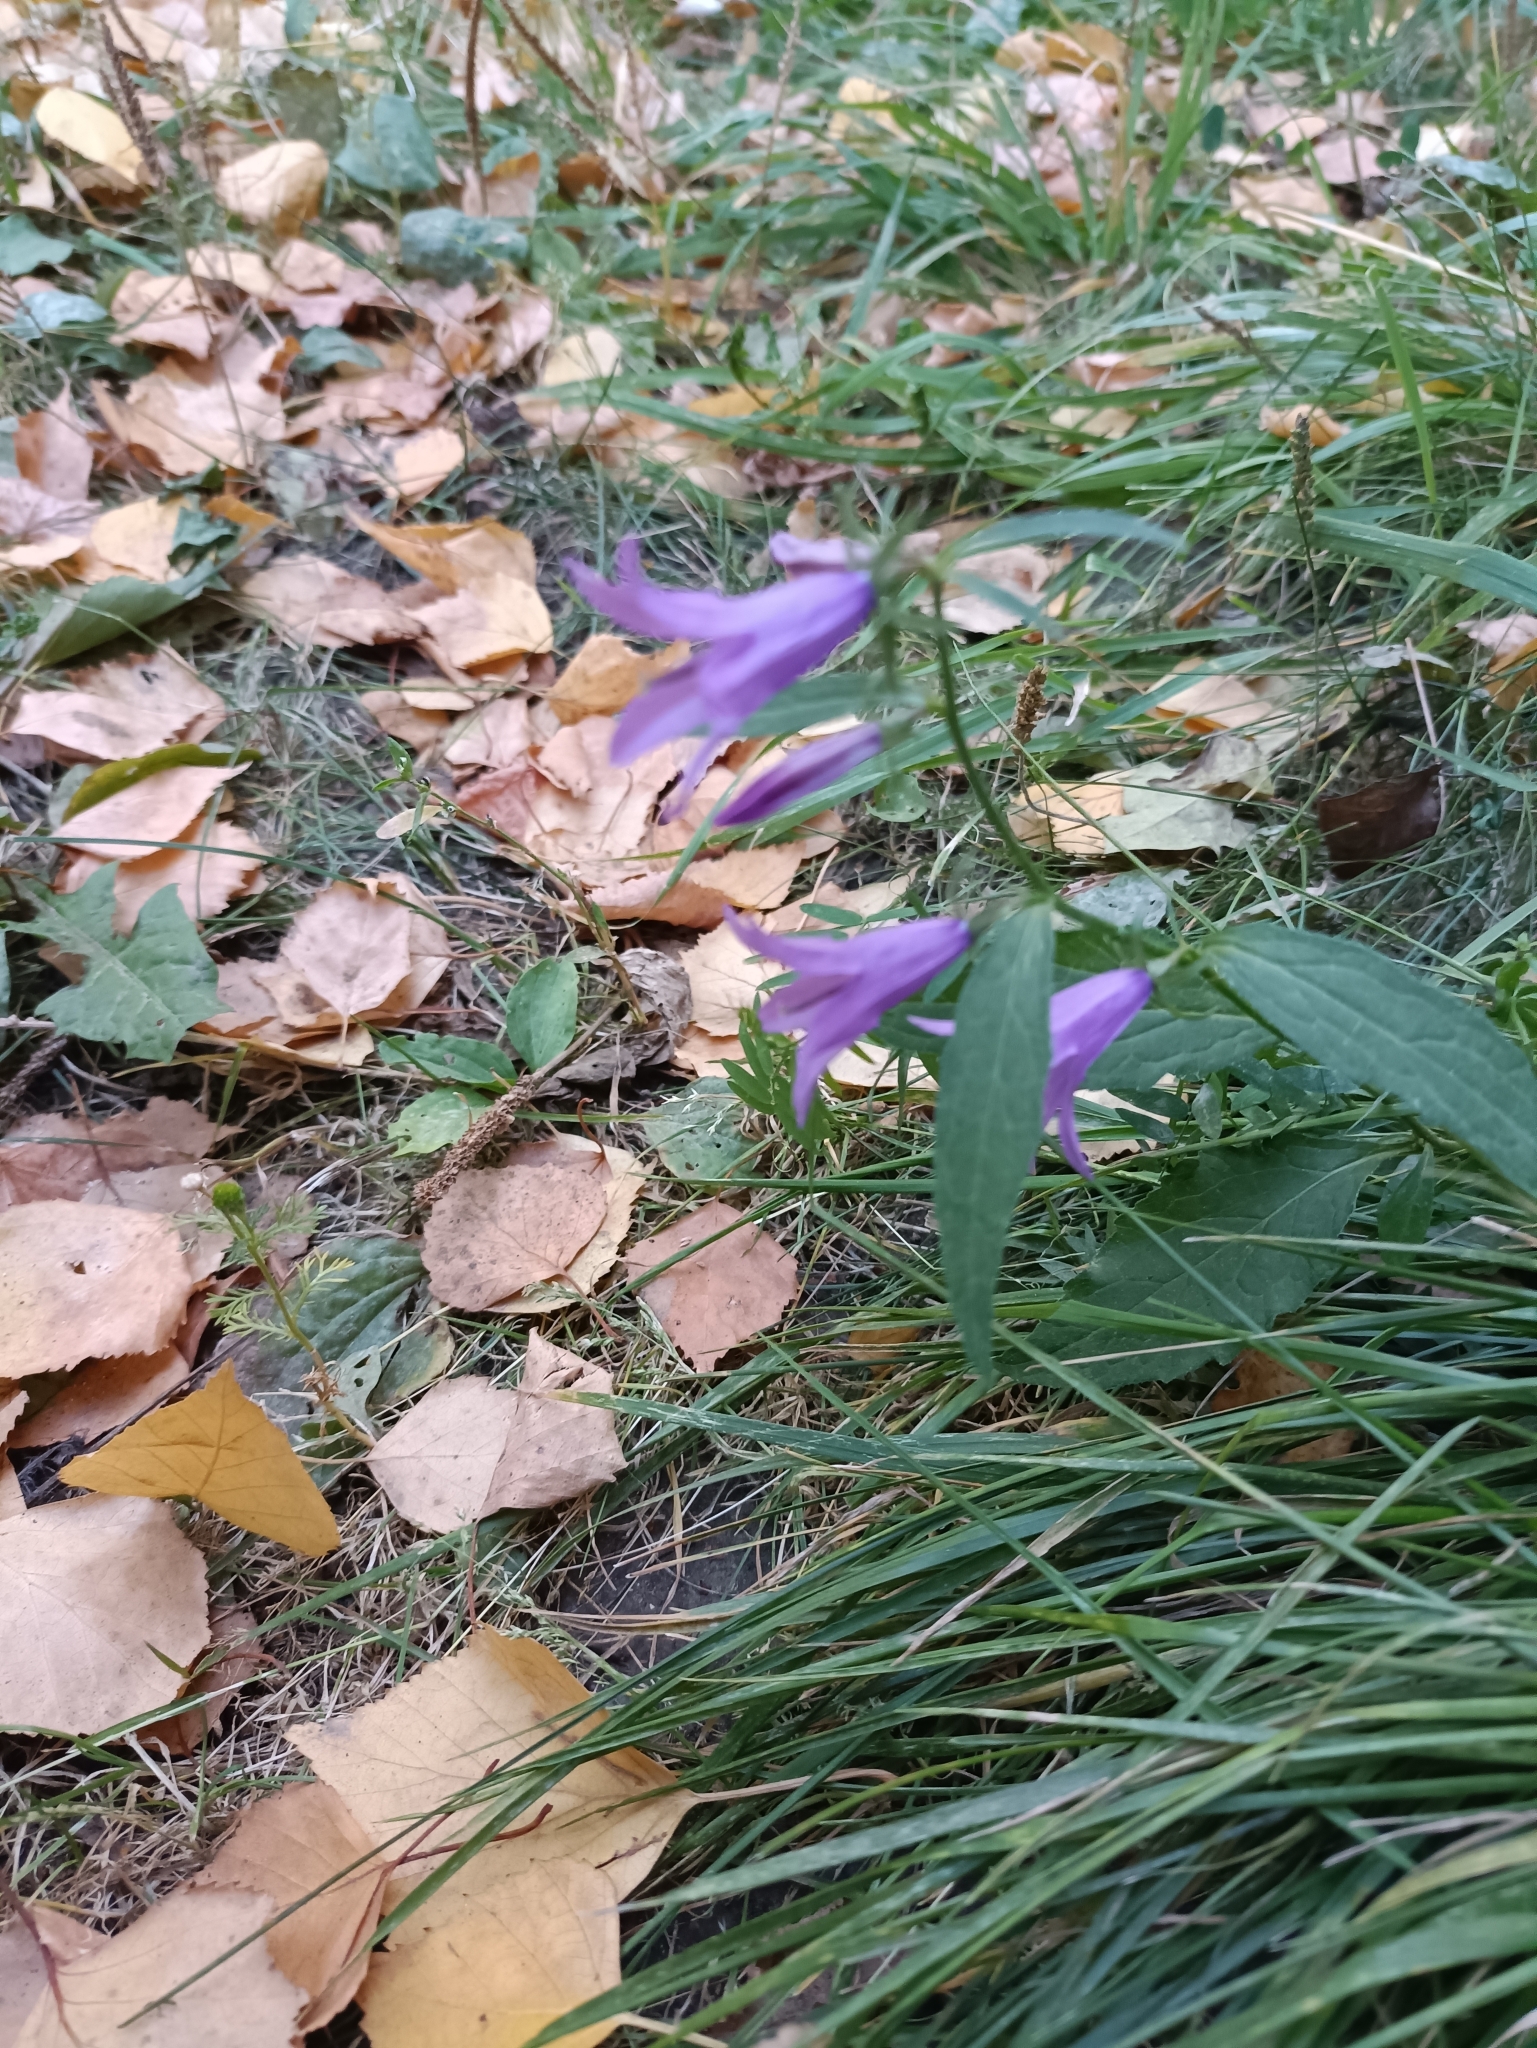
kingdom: Plantae
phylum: Tracheophyta
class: Magnoliopsida
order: Asterales
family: Campanulaceae
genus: Campanula
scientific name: Campanula rapunculoides
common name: Creeping bellflower
